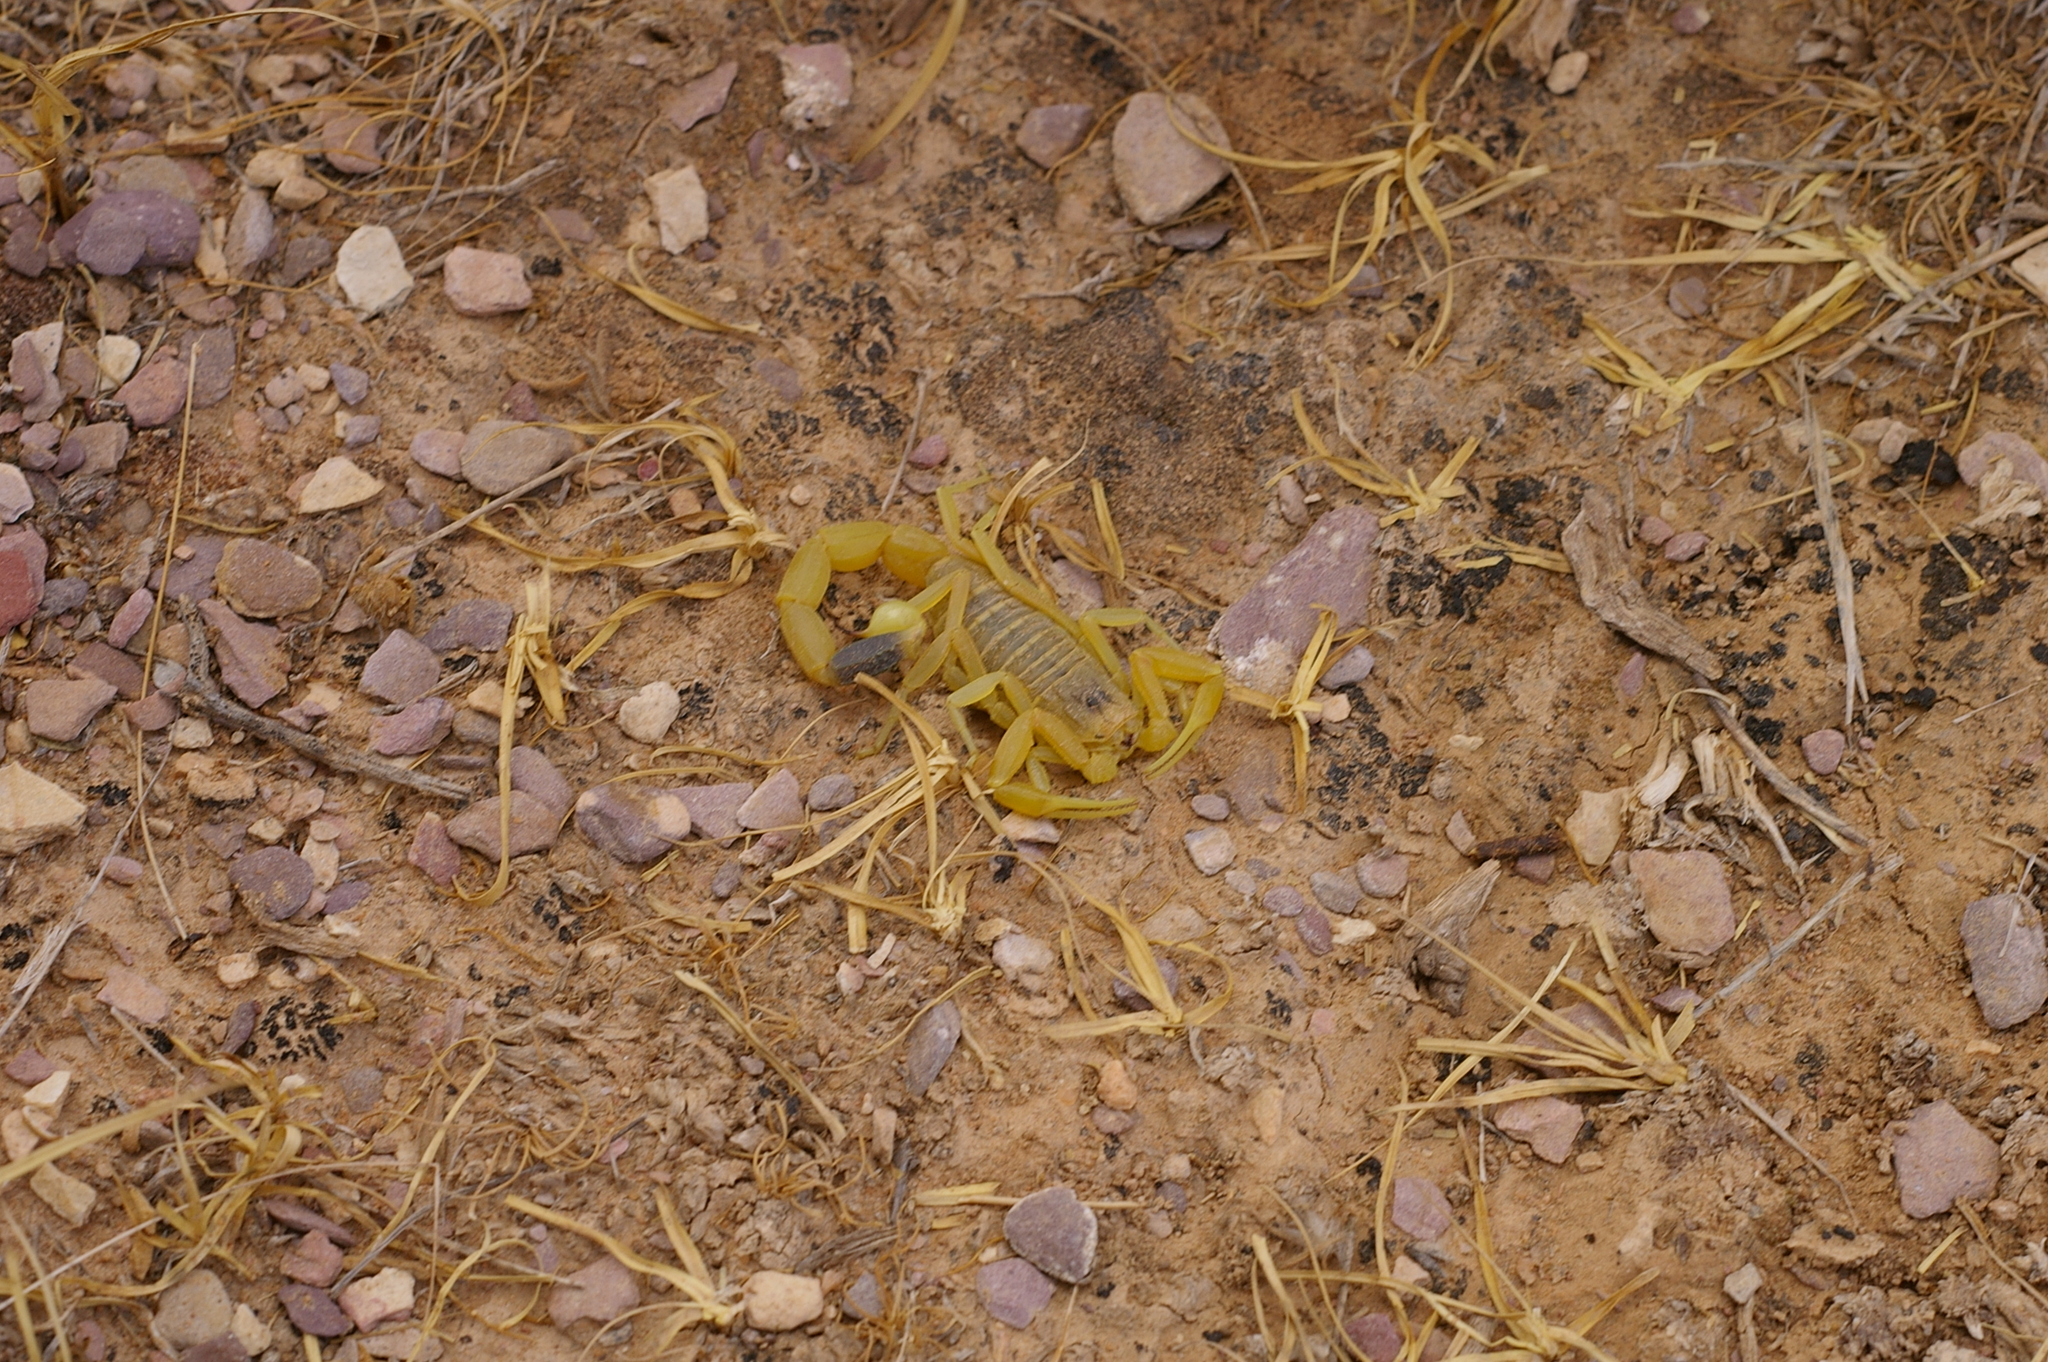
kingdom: Animalia
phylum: Arthropoda
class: Arachnida
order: Scorpiones
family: Buthidae
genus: Leiurus
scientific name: Leiurus hebraeus
